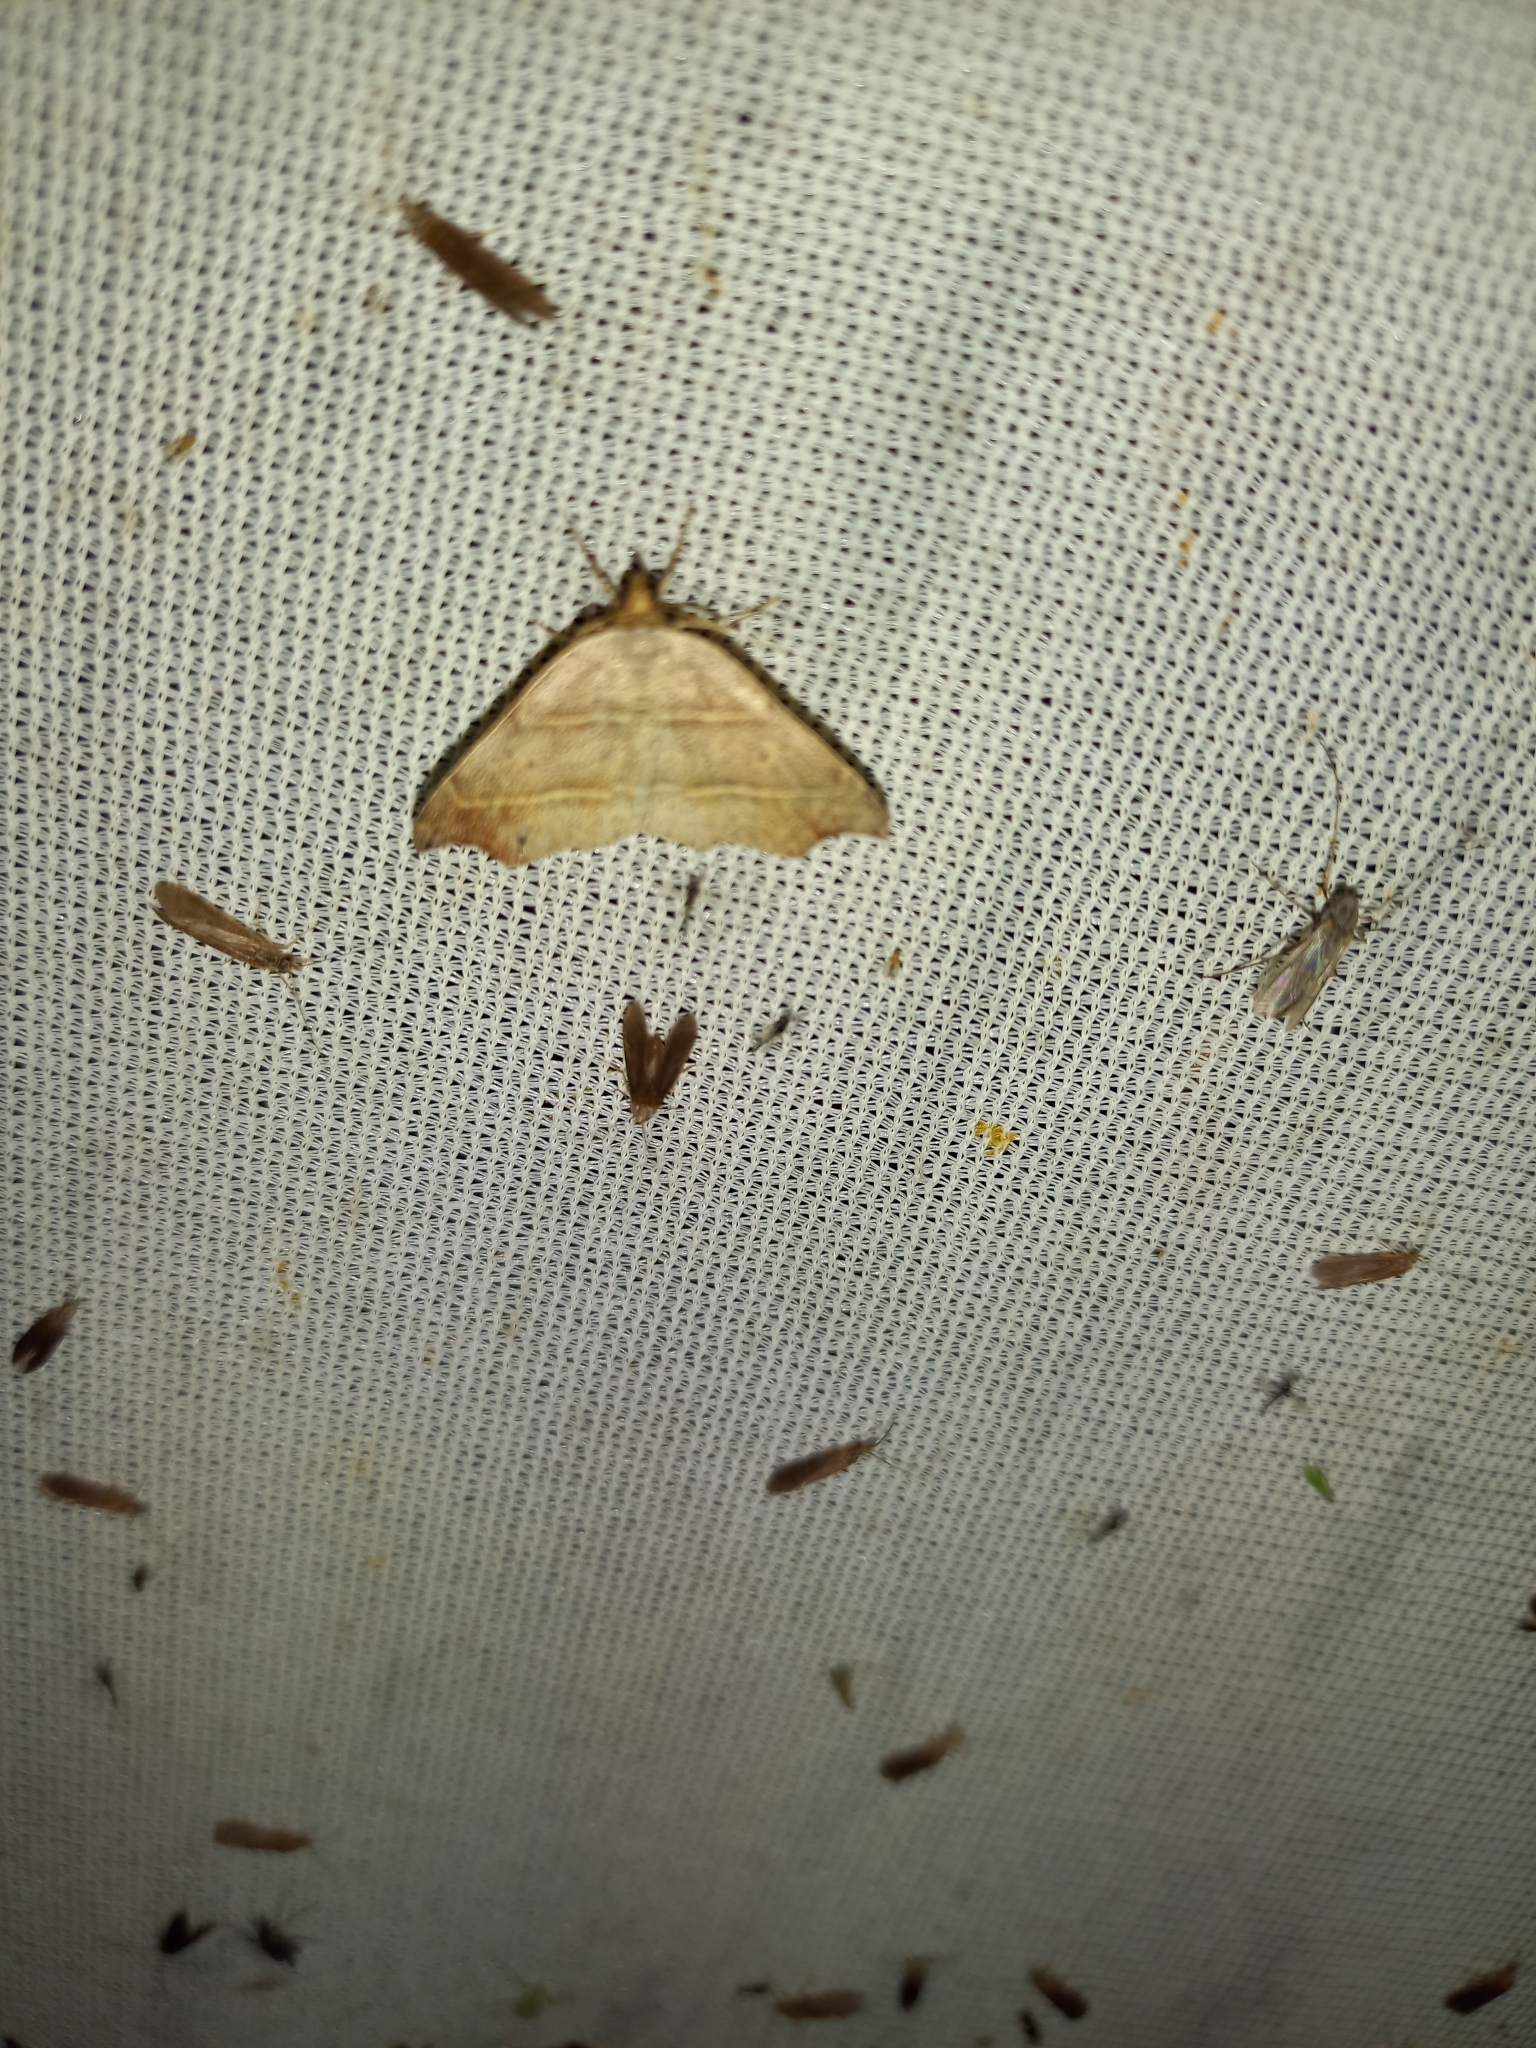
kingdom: Animalia
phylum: Arthropoda
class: Insecta
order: Lepidoptera
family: Erebidae
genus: Laspeyria
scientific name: Laspeyria flexula
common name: Beautiful hook-tip
